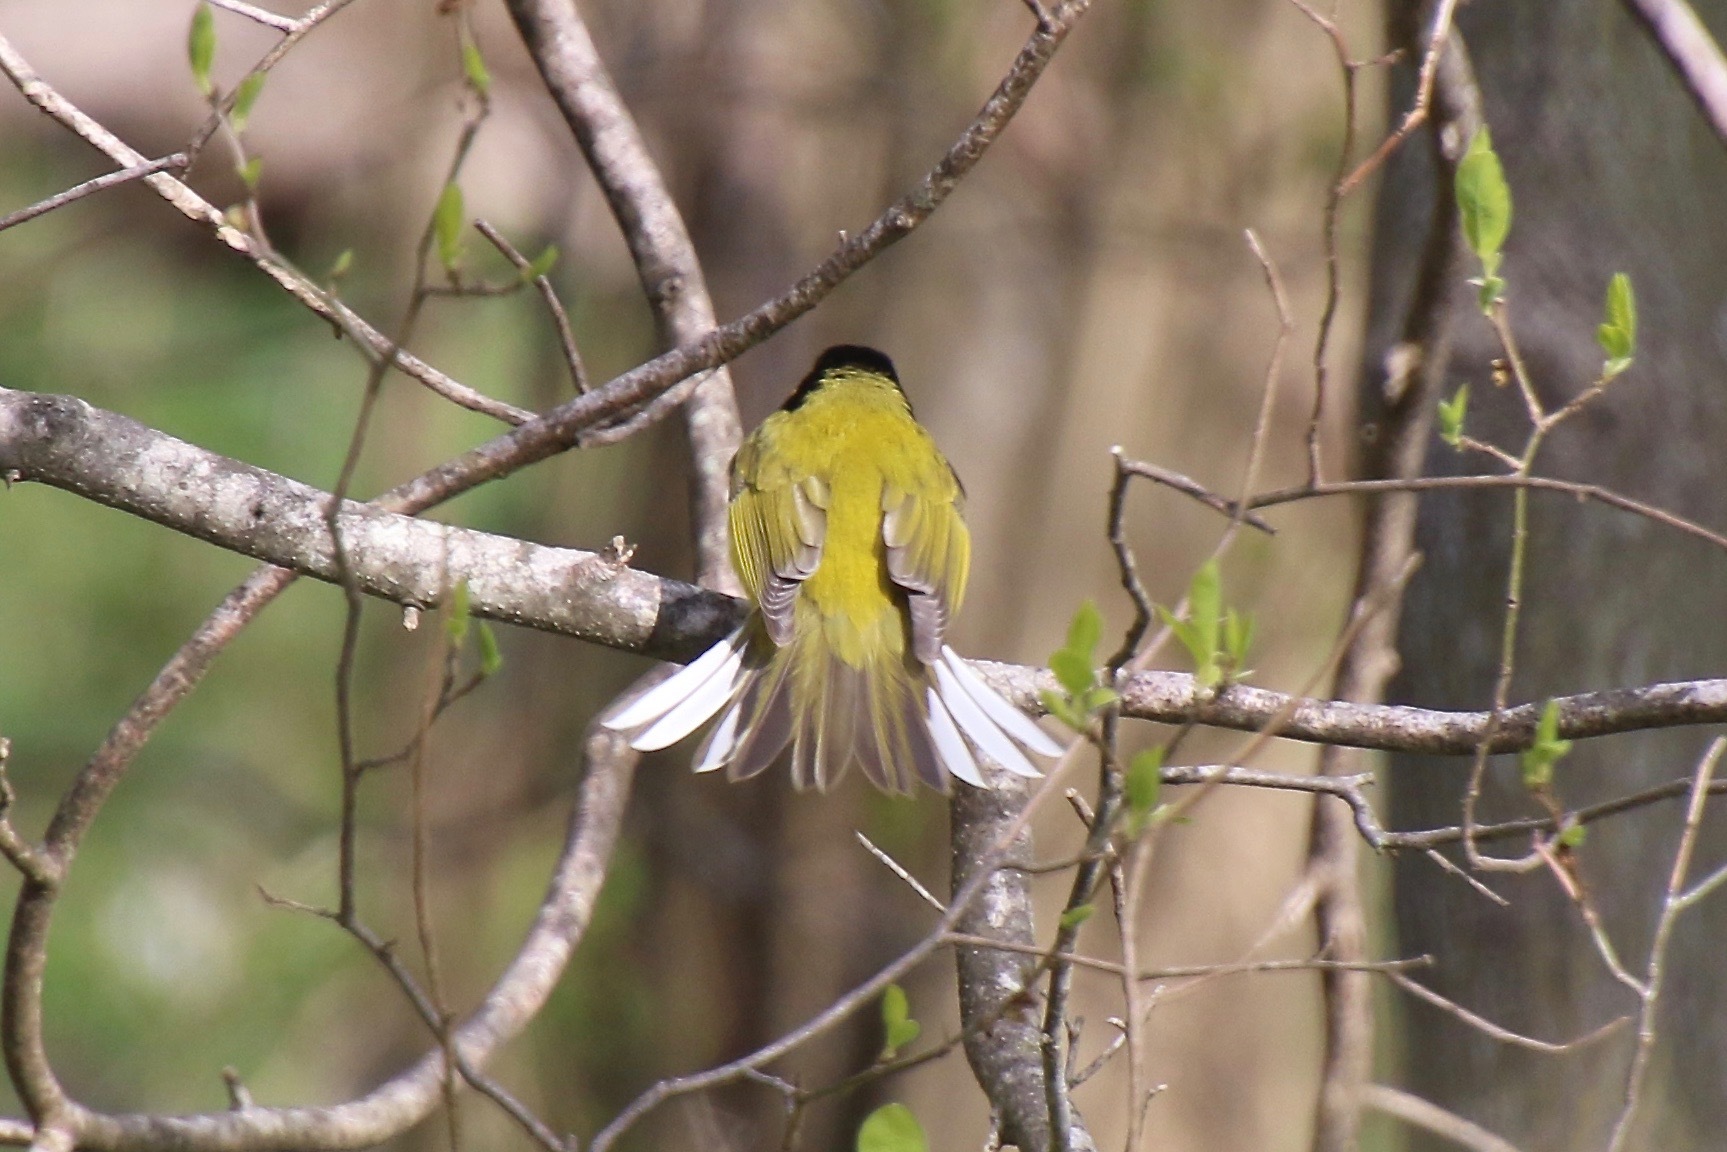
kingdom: Animalia
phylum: Chordata
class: Aves
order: Passeriformes
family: Parulidae
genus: Setophaga
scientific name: Setophaga citrina
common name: Hooded warbler
